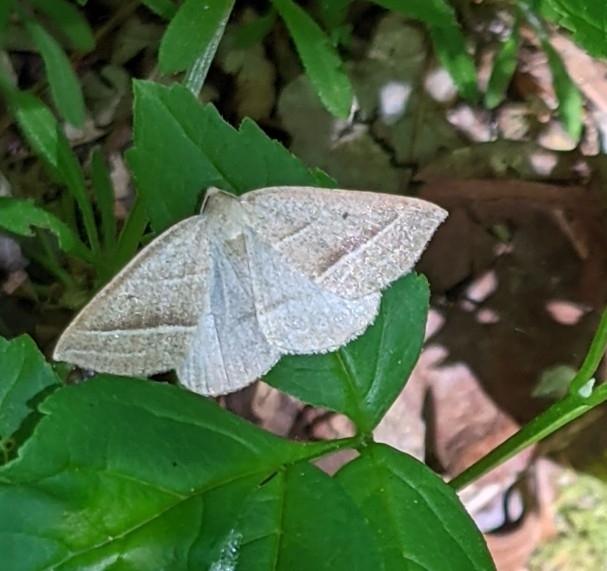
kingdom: Animalia
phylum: Arthropoda
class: Insecta
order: Lepidoptera
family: Pterophoridae
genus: Pterophorus
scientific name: Pterophorus Petrophora chlorosata
